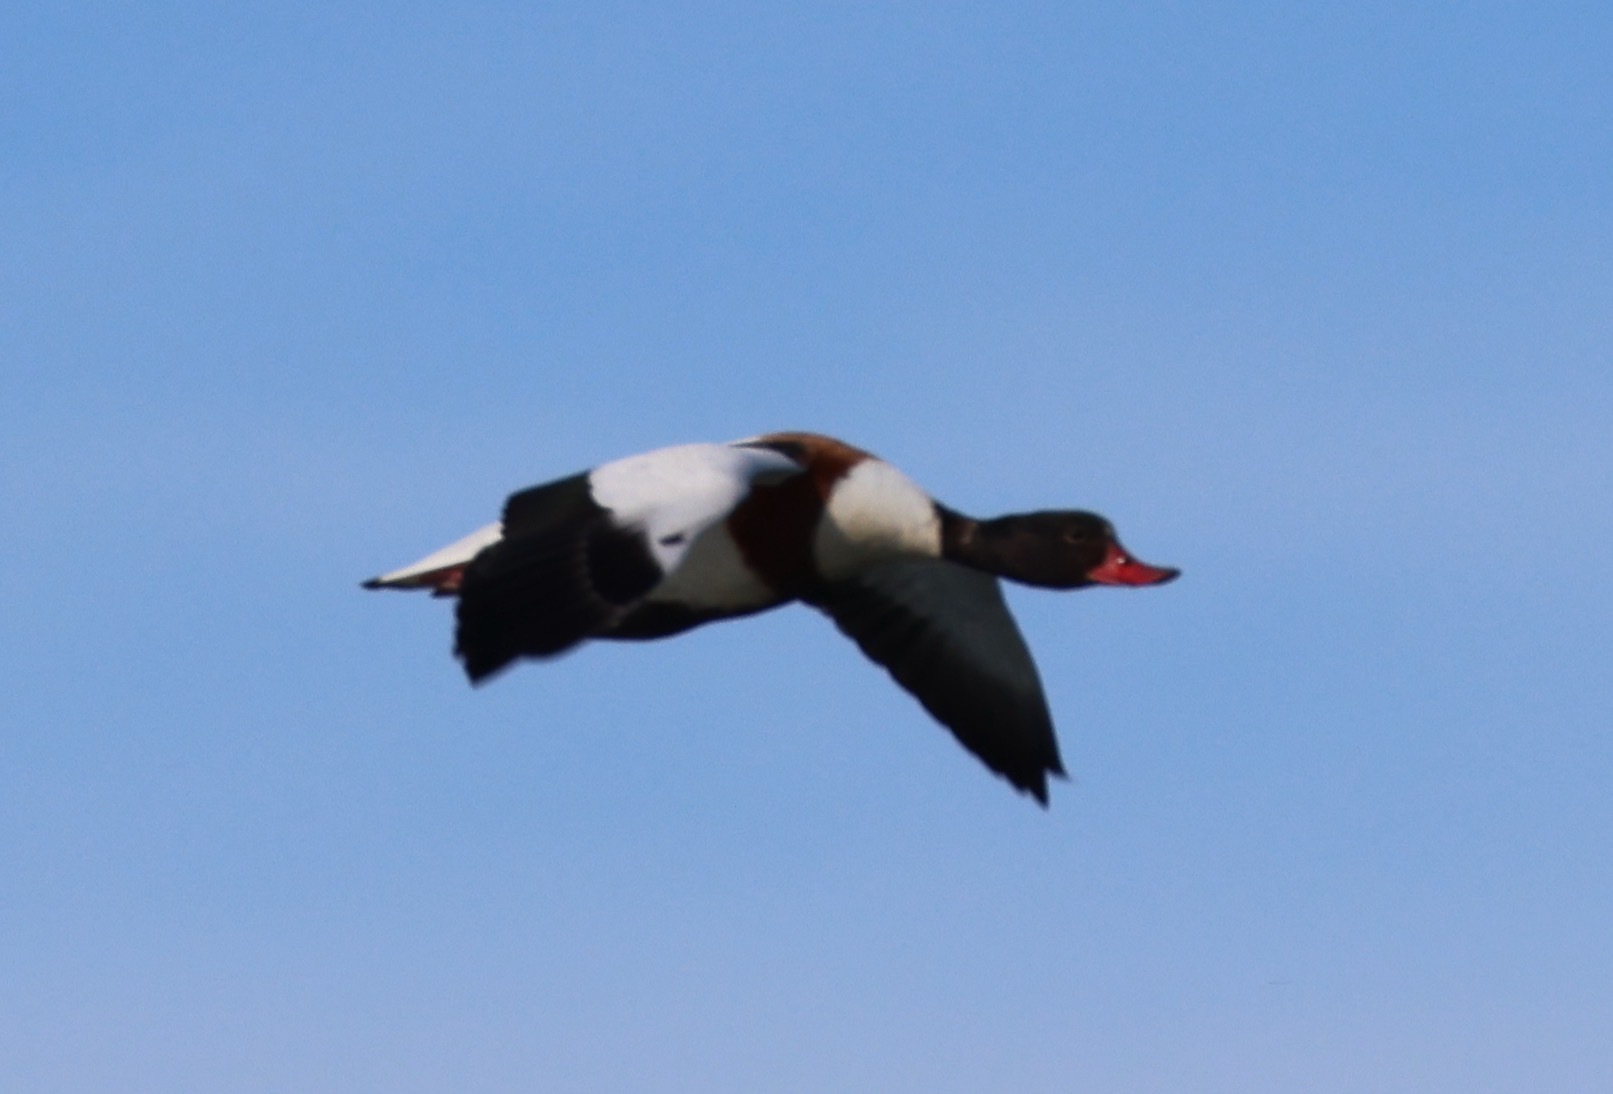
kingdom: Animalia
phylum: Chordata
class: Aves
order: Anseriformes
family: Anatidae
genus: Tadorna
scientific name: Tadorna tadorna
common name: Common shelduck
